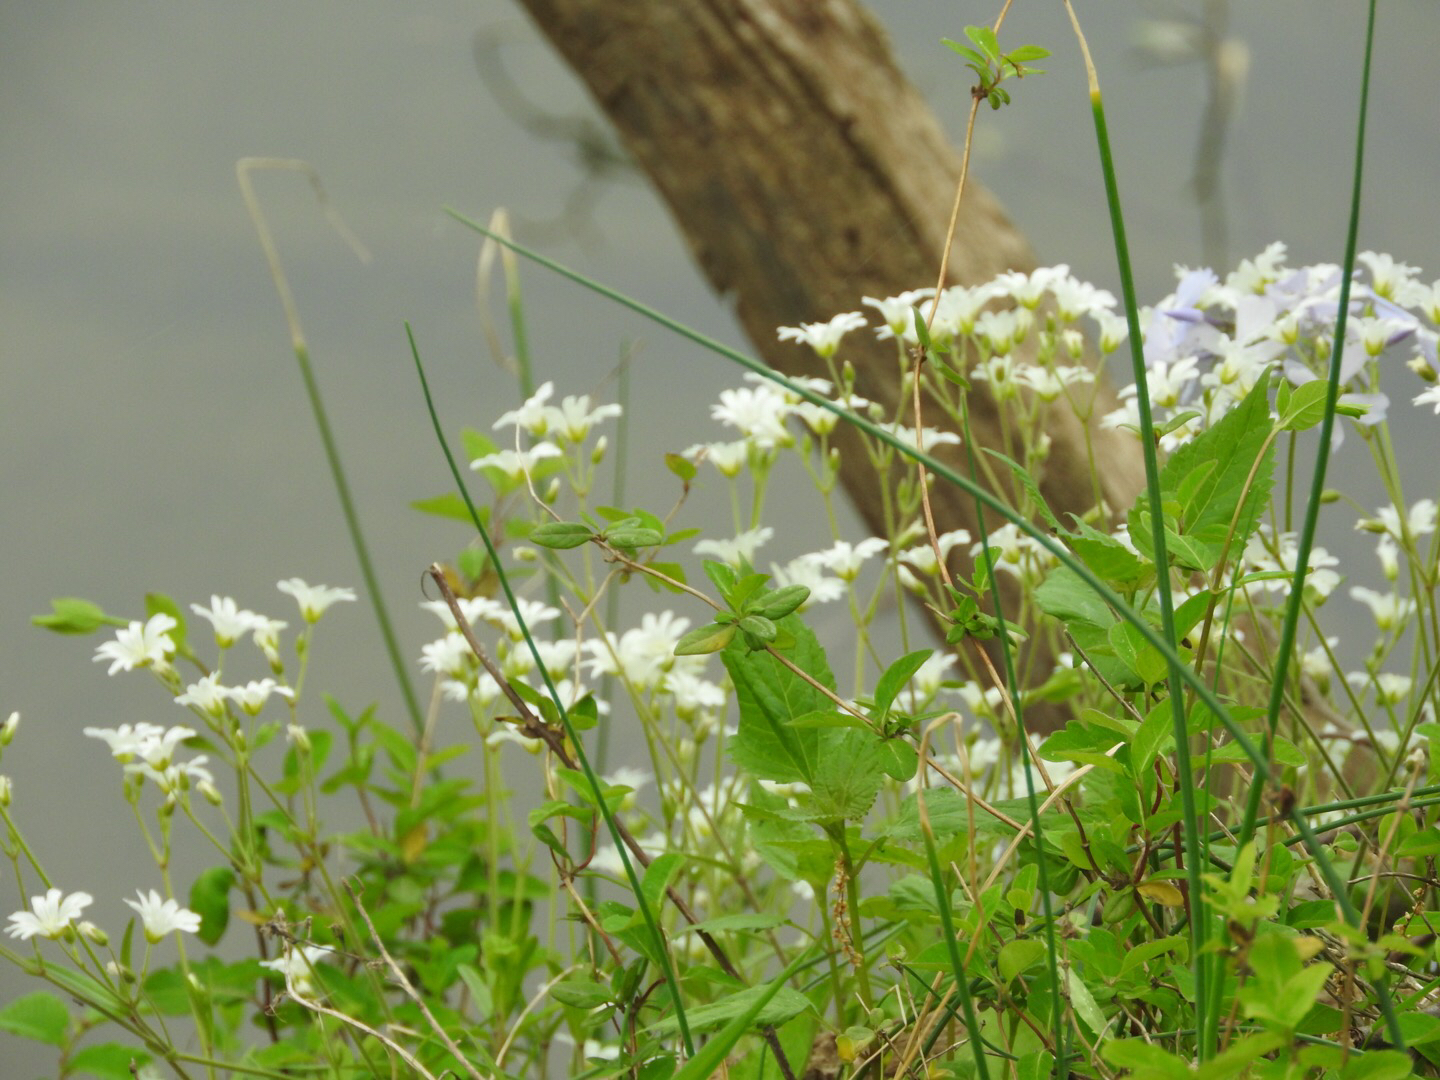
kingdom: Plantae
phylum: Tracheophyta
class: Magnoliopsida
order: Caryophyllales
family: Caryophyllaceae
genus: Cerastium
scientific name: Cerastium arvense
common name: Field mouse-ear
